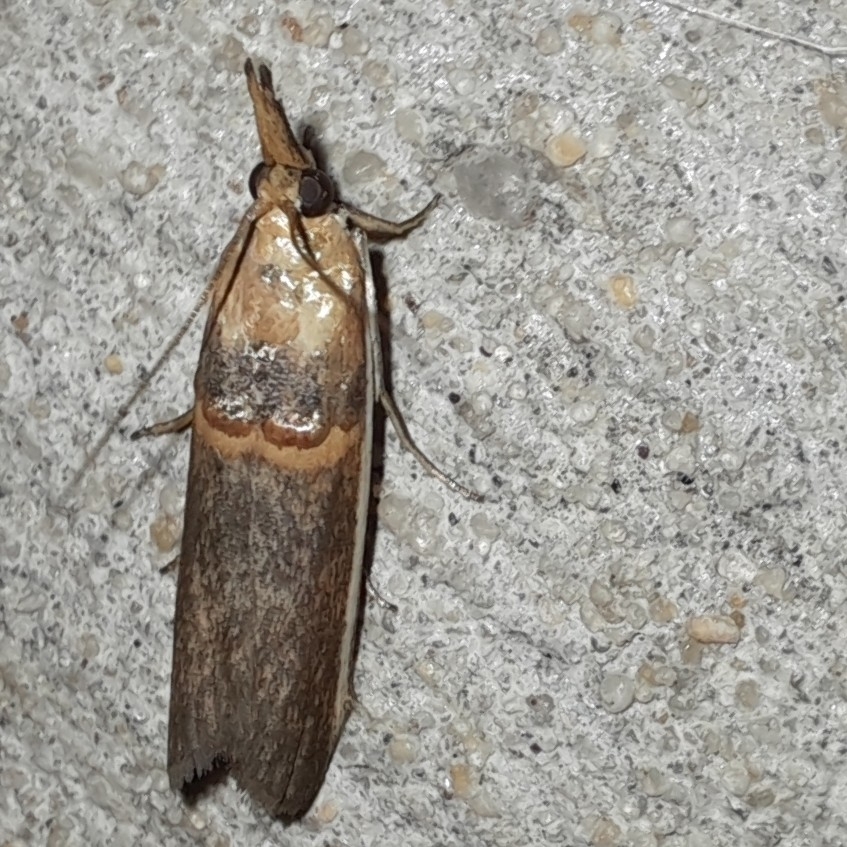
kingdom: Animalia
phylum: Arthropoda
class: Insecta
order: Lepidoptera
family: Pyralidae
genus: Etiella
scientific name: Etiella zinckenella
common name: Gold-banded etiella moth
